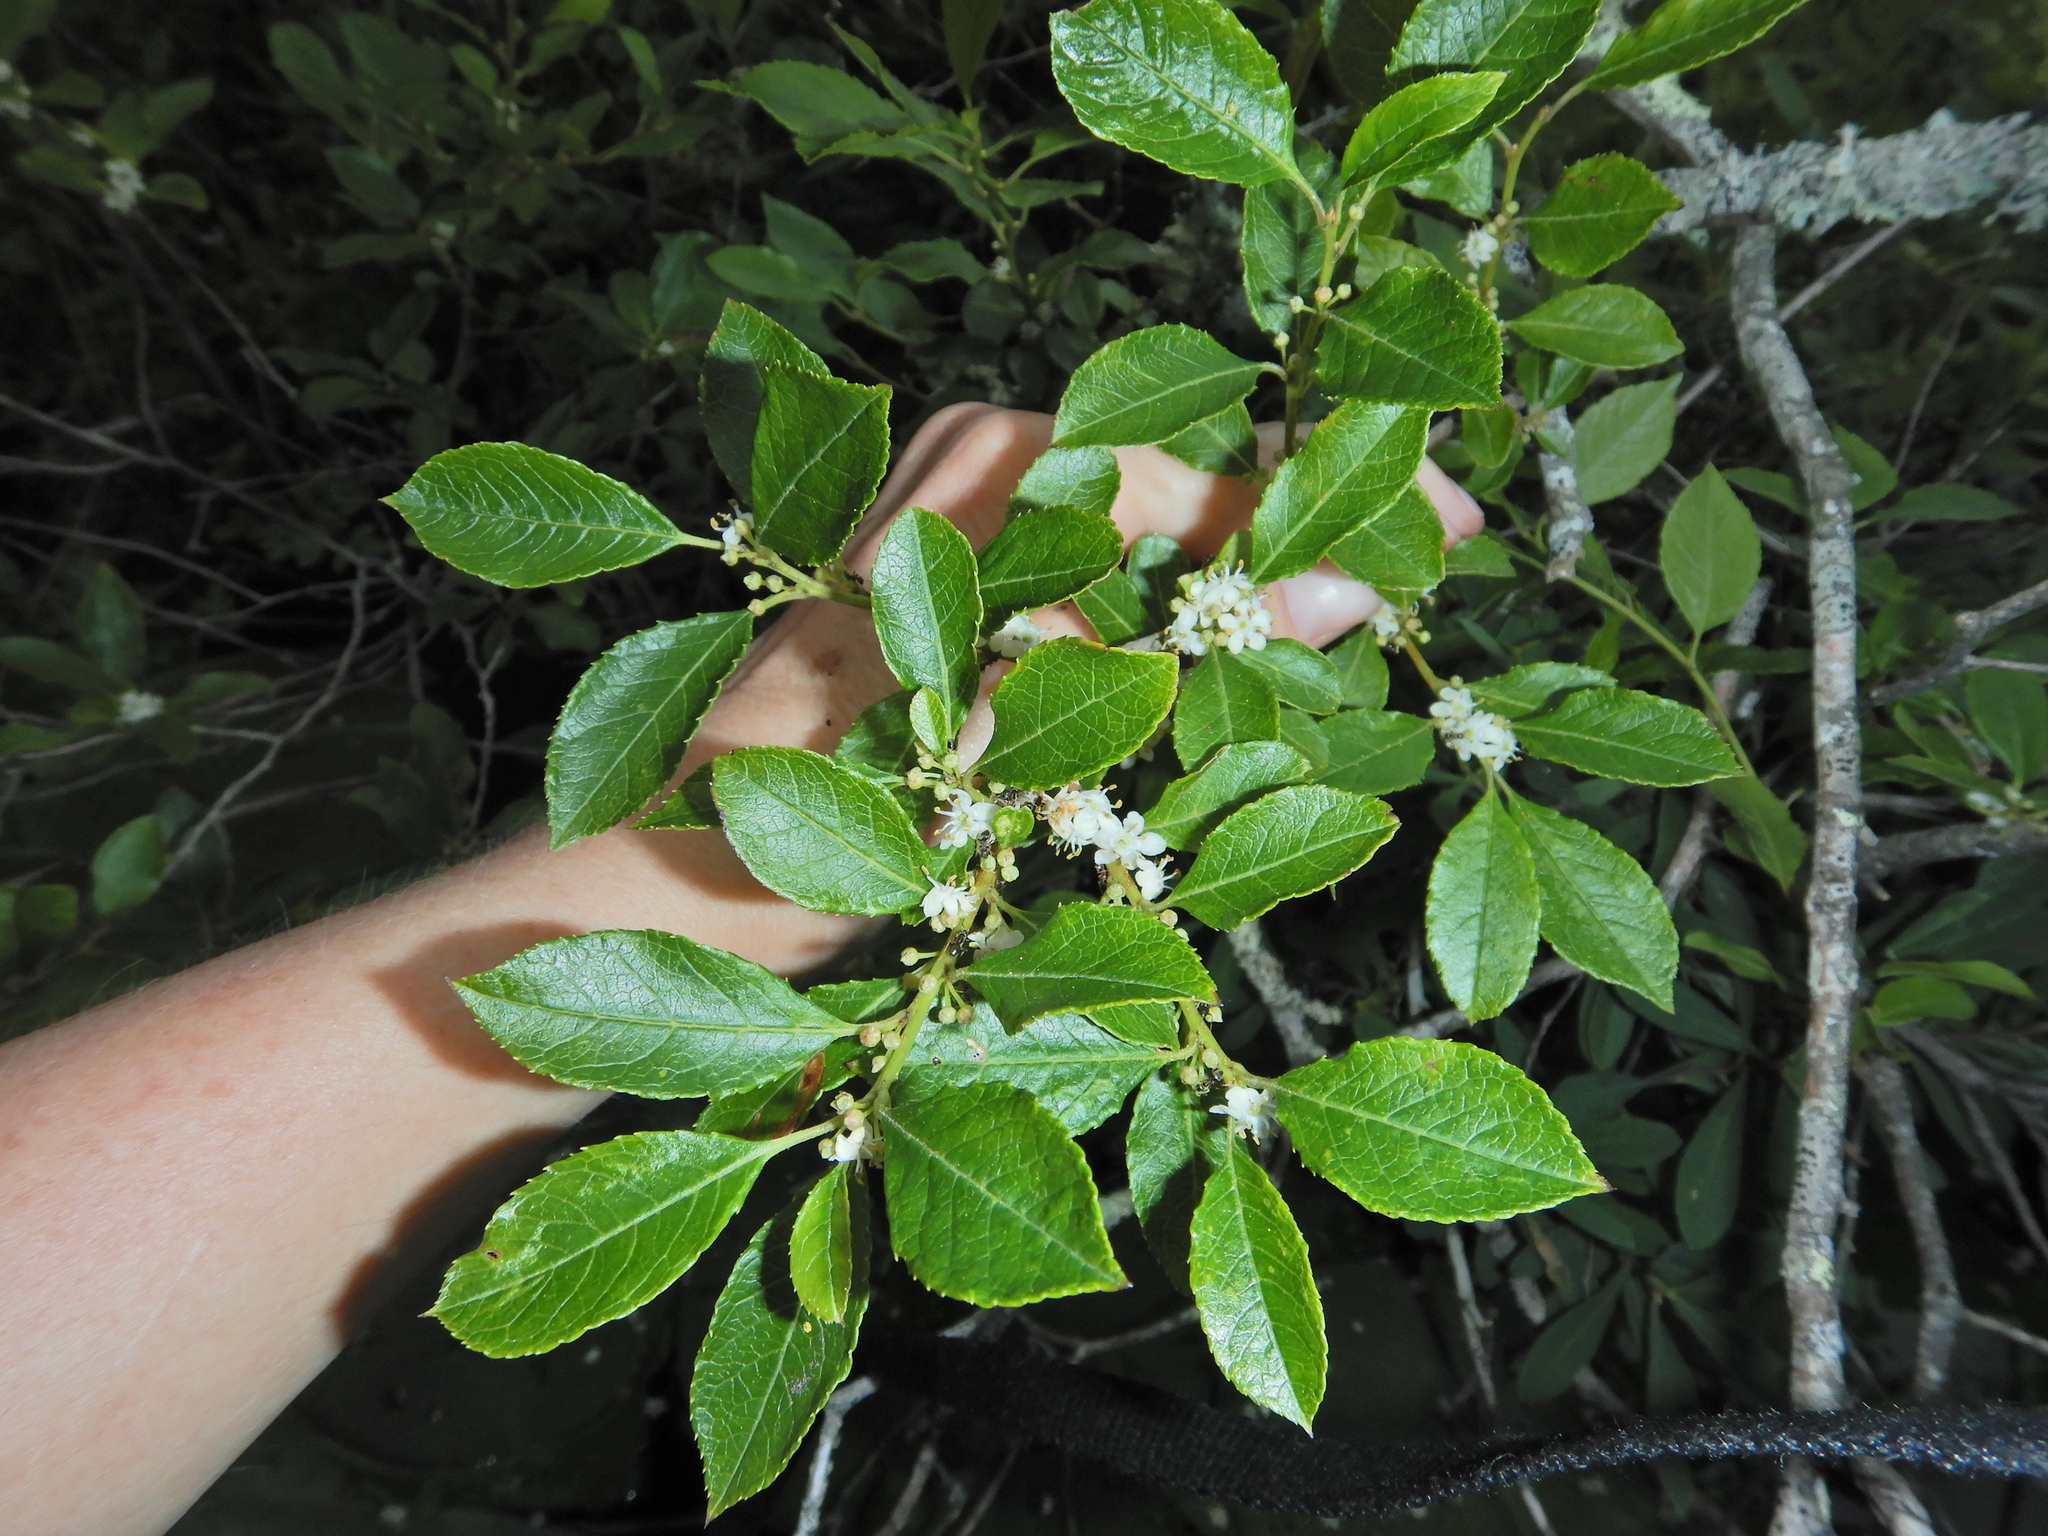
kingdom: Plantae
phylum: Tracheophyta
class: Magnoliopsida
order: Aquifoliales
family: Aquifoliaceae
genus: Ilex
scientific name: Ilex verticillata
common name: Virginia winterberry
